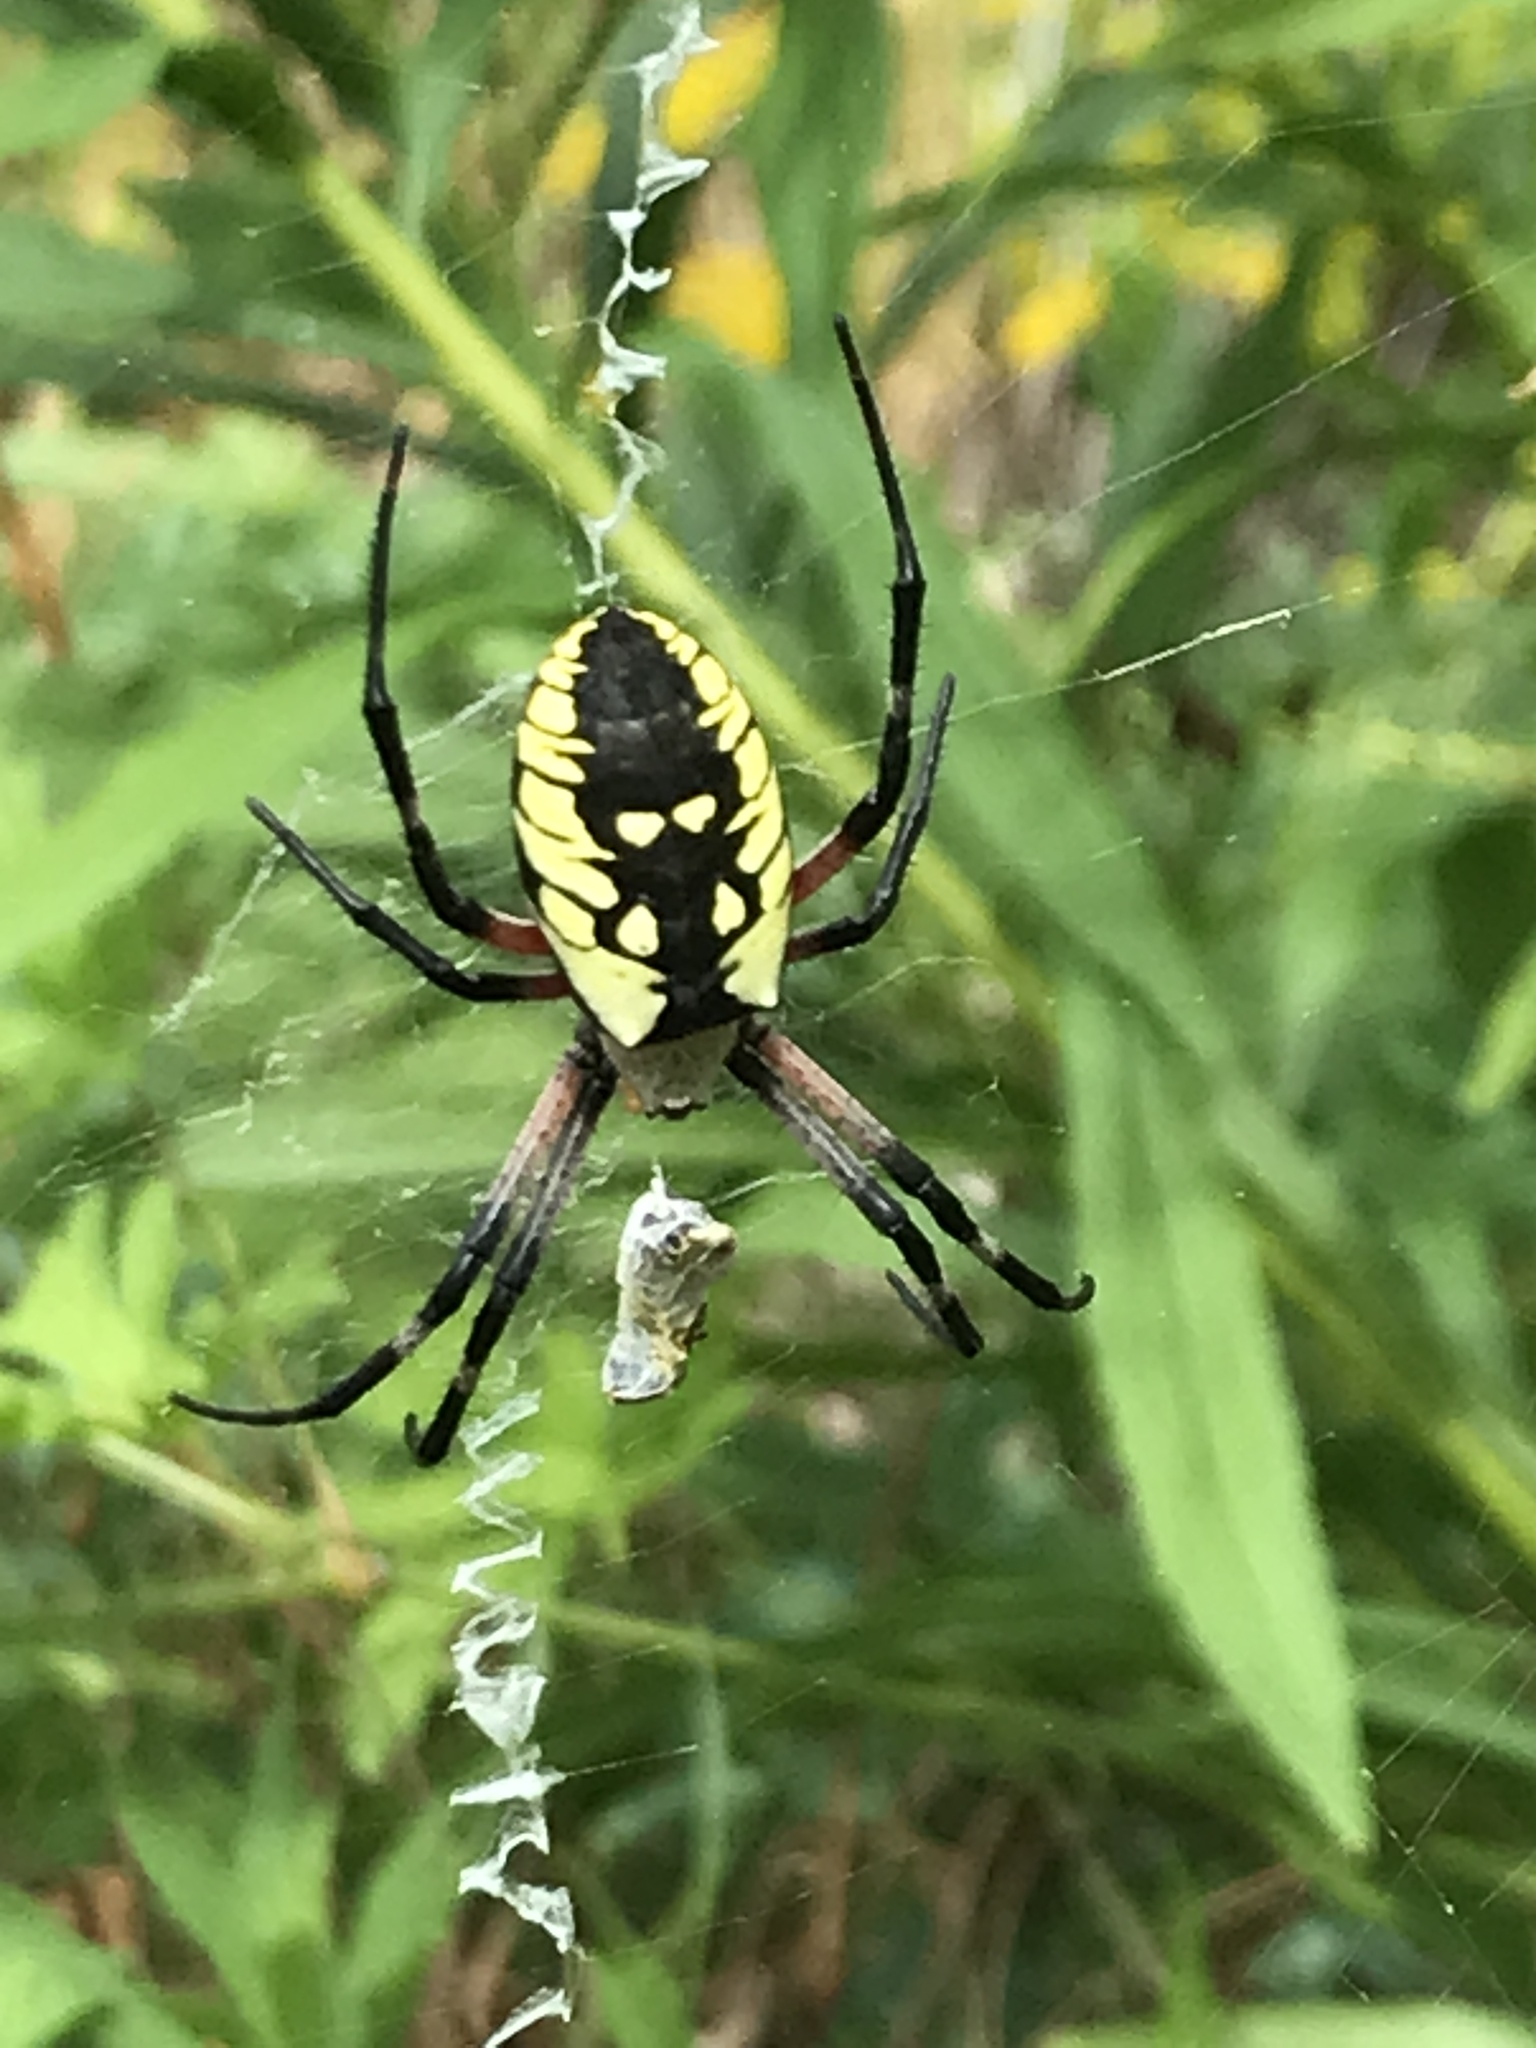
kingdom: Animalia
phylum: Arthropoda
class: Arachnida
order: Araneae
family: Araneidae
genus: Argiope
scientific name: Argiope aurantia
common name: Orb weavers
